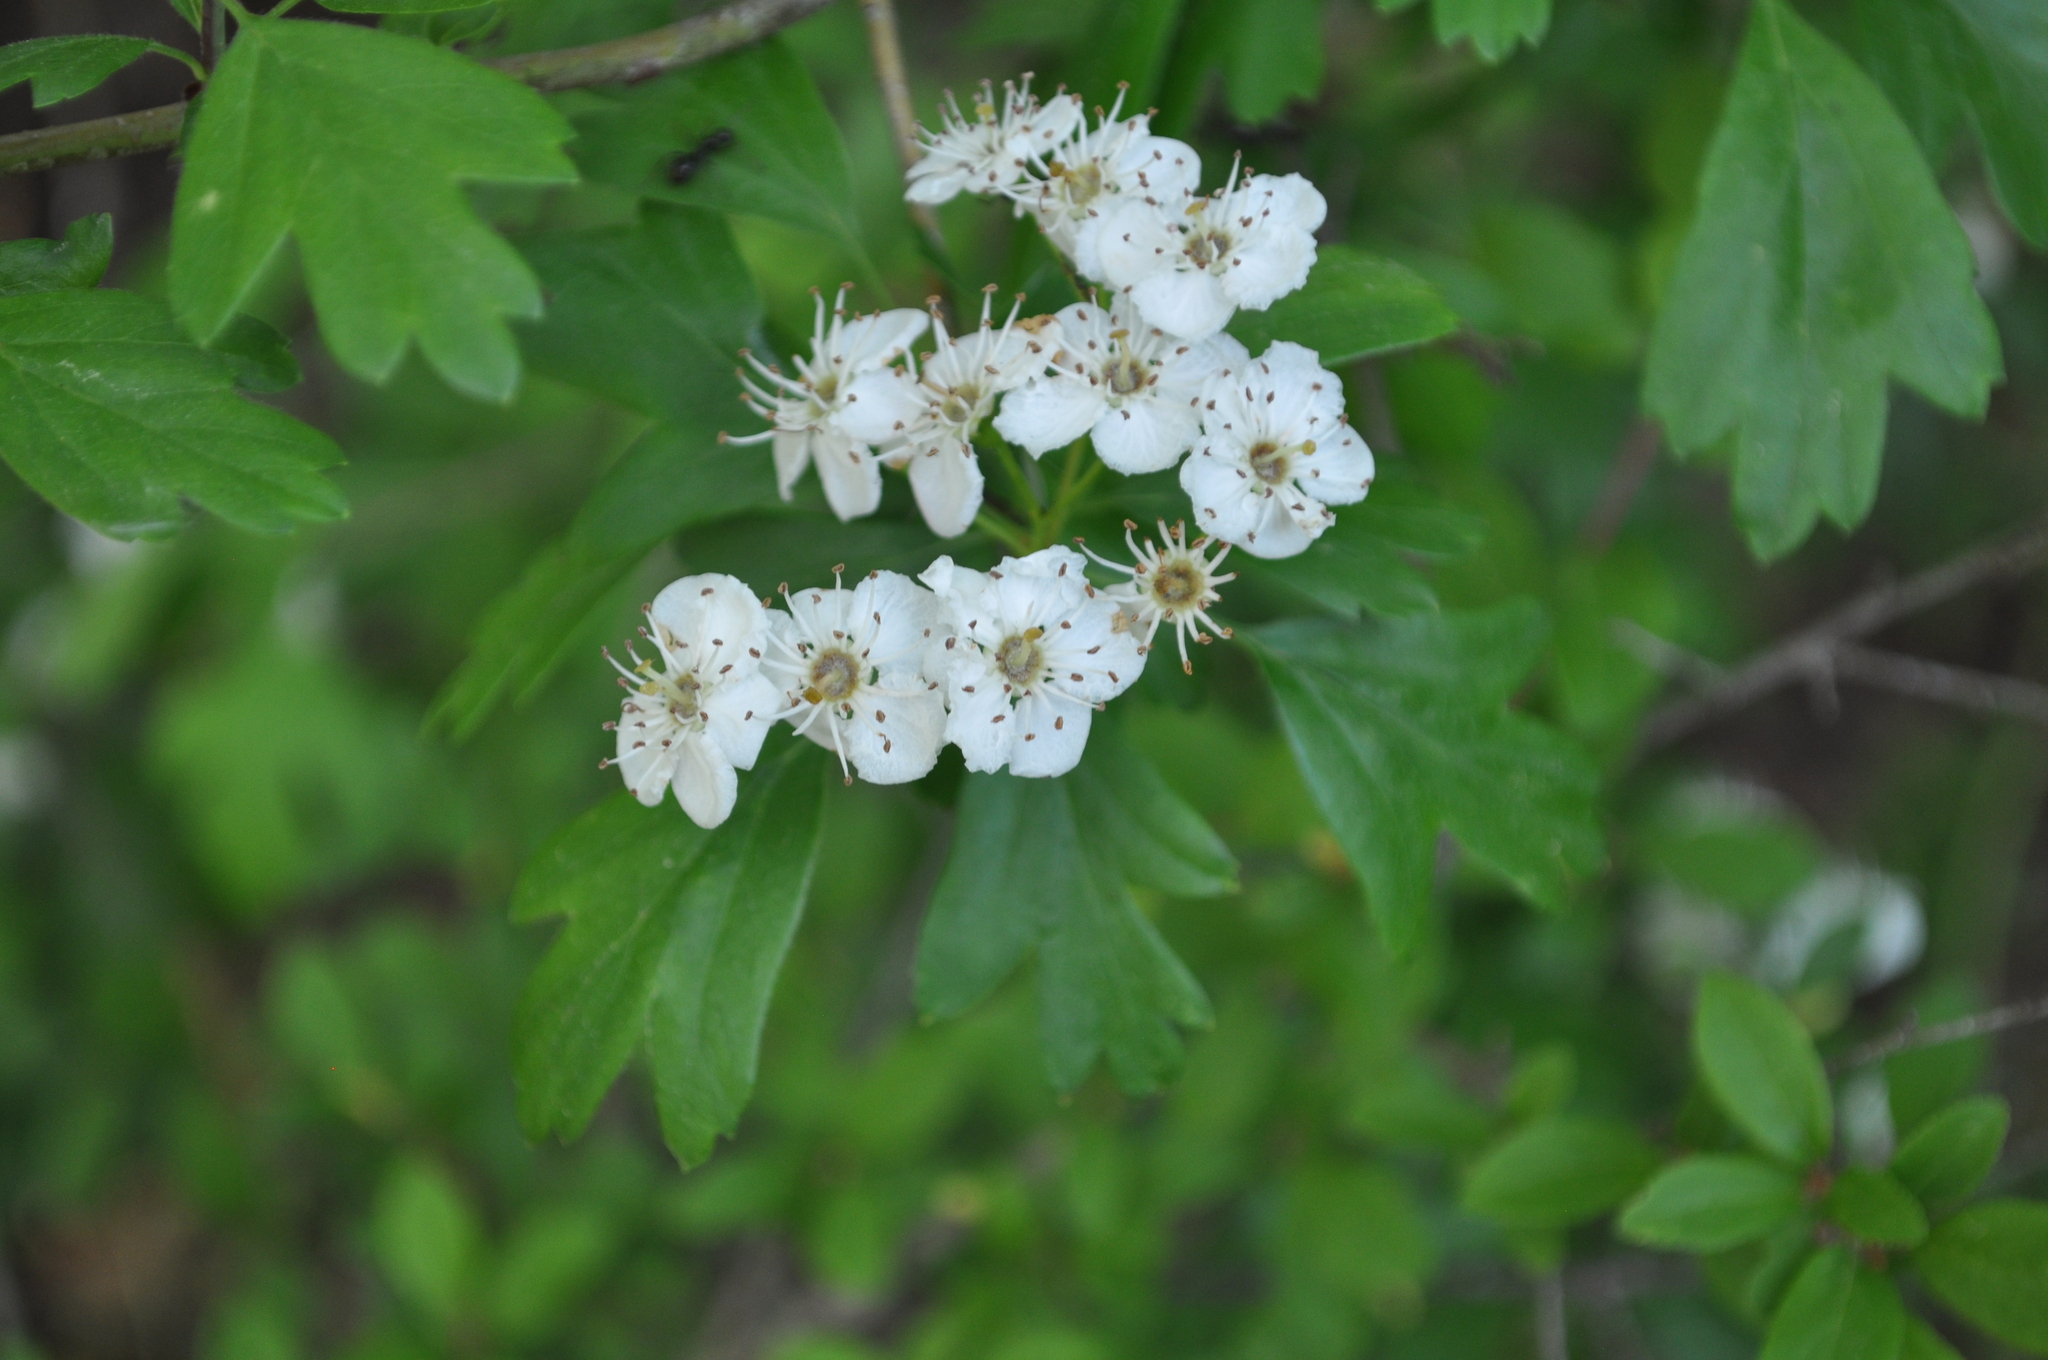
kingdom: Plantae
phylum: Tracheophyta
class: Magnoliopsida
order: Rosales
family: Rosaceae
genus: Crataegus
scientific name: Crataegus monogyna
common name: Hawthorn
